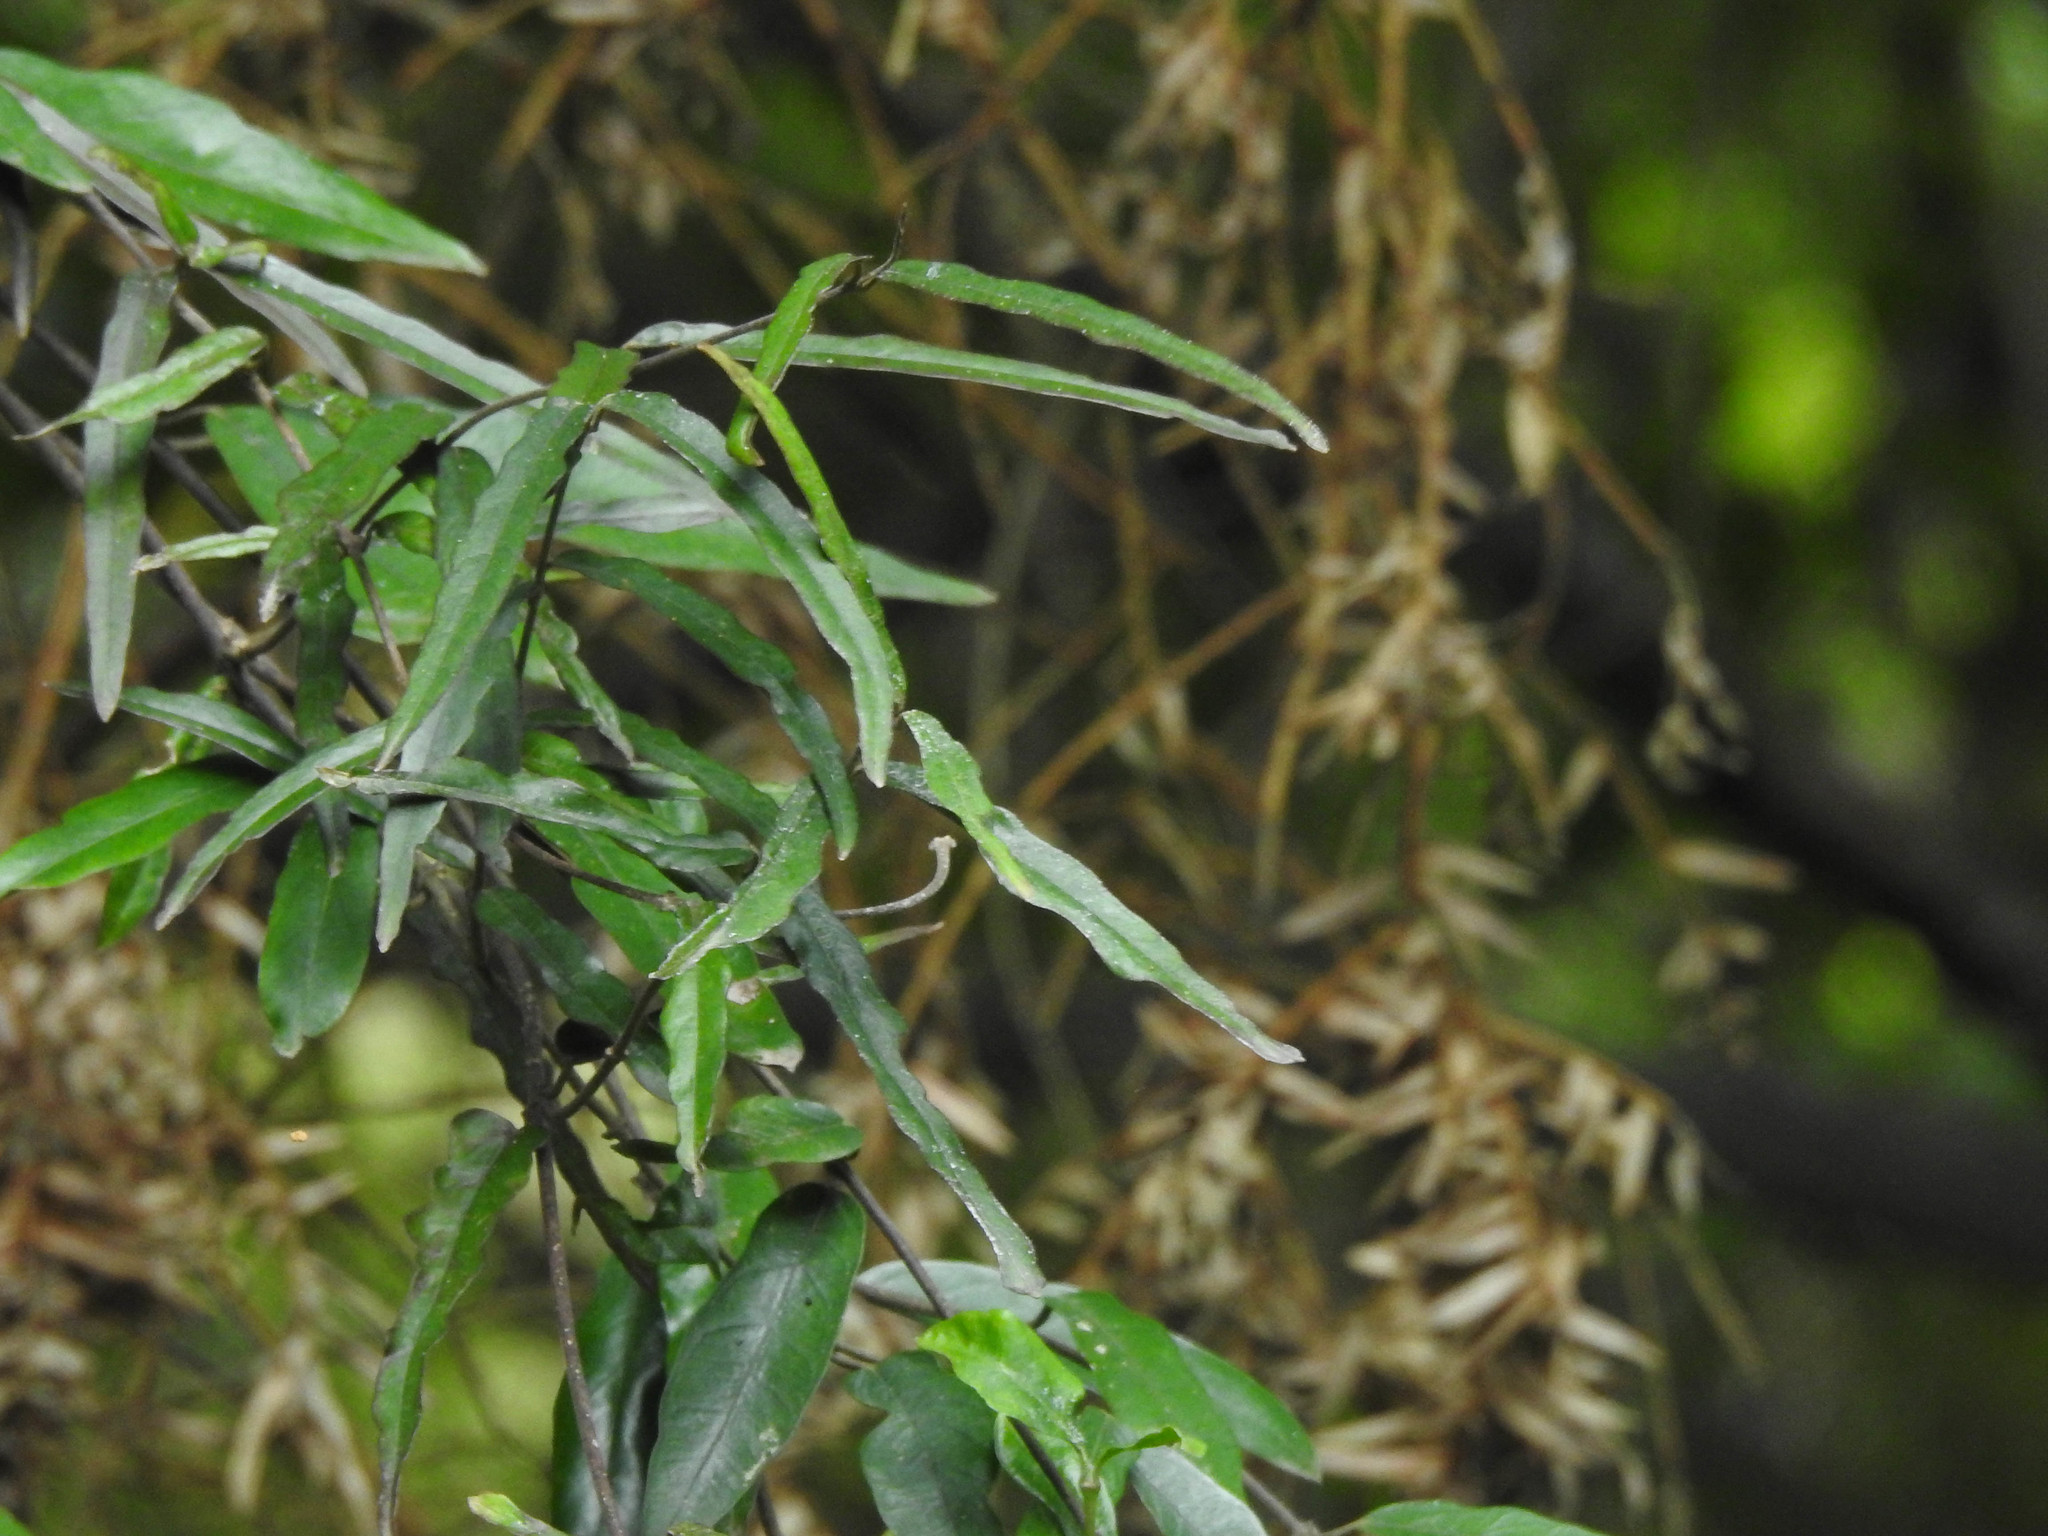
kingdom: Plantae
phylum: Tracheophyta
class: Magnoliopsida
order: Gentianales
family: Apocynaceae
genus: Parsonsia
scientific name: Parsonsia heterophylla
